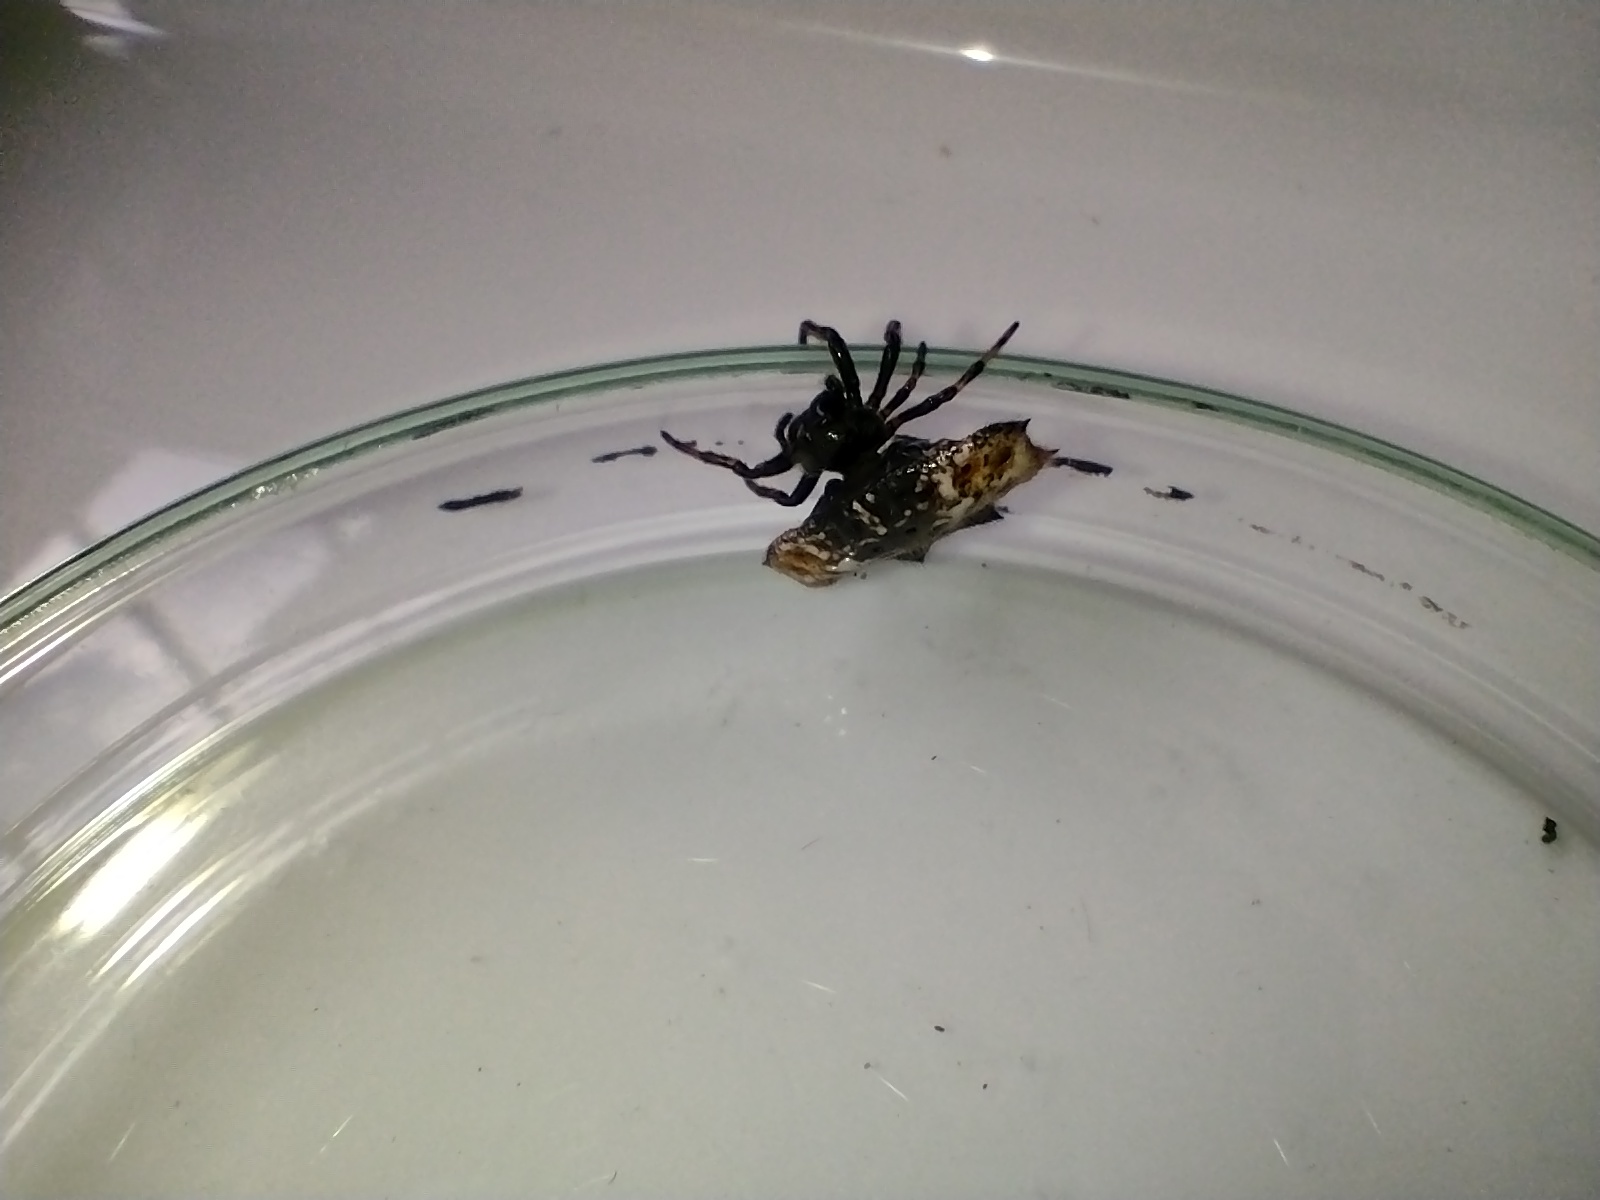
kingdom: Animalia
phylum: Arthropoda
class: Arachnida
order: Araneae
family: Araneidae
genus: Gasteracantha
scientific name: Gasteracantha cancriformis
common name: Orb weavers
